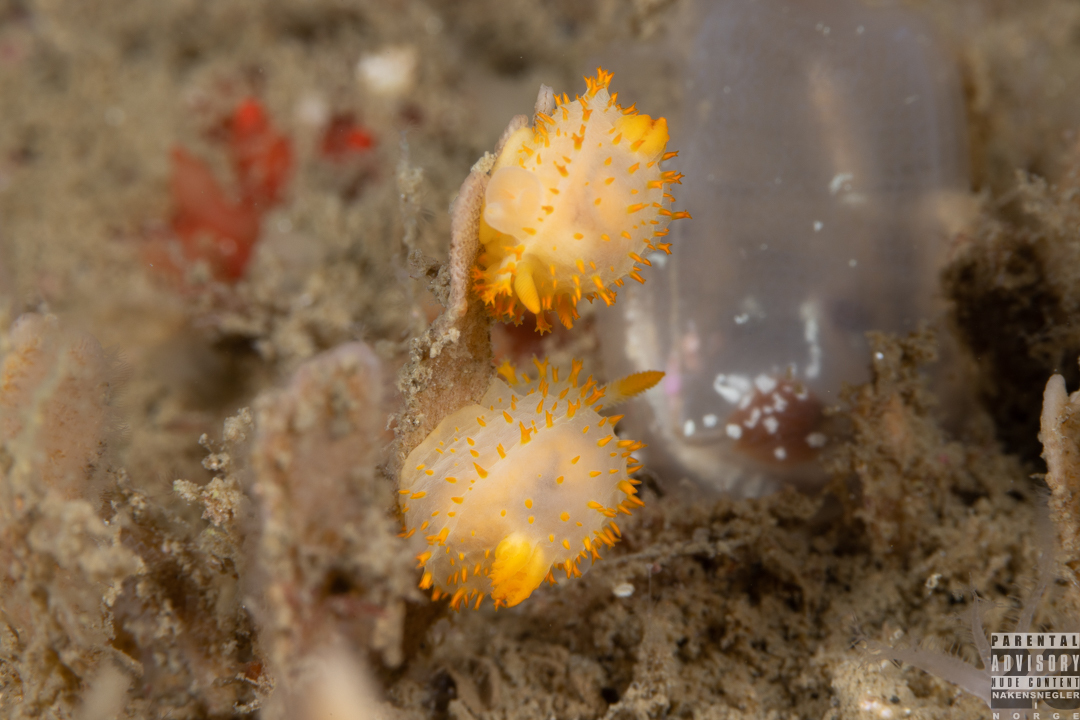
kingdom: Animalia
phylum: Mollusca
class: Gastropoda
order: Nudibranchia
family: Polyceridae
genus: Crimora
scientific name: Crimora papillata
